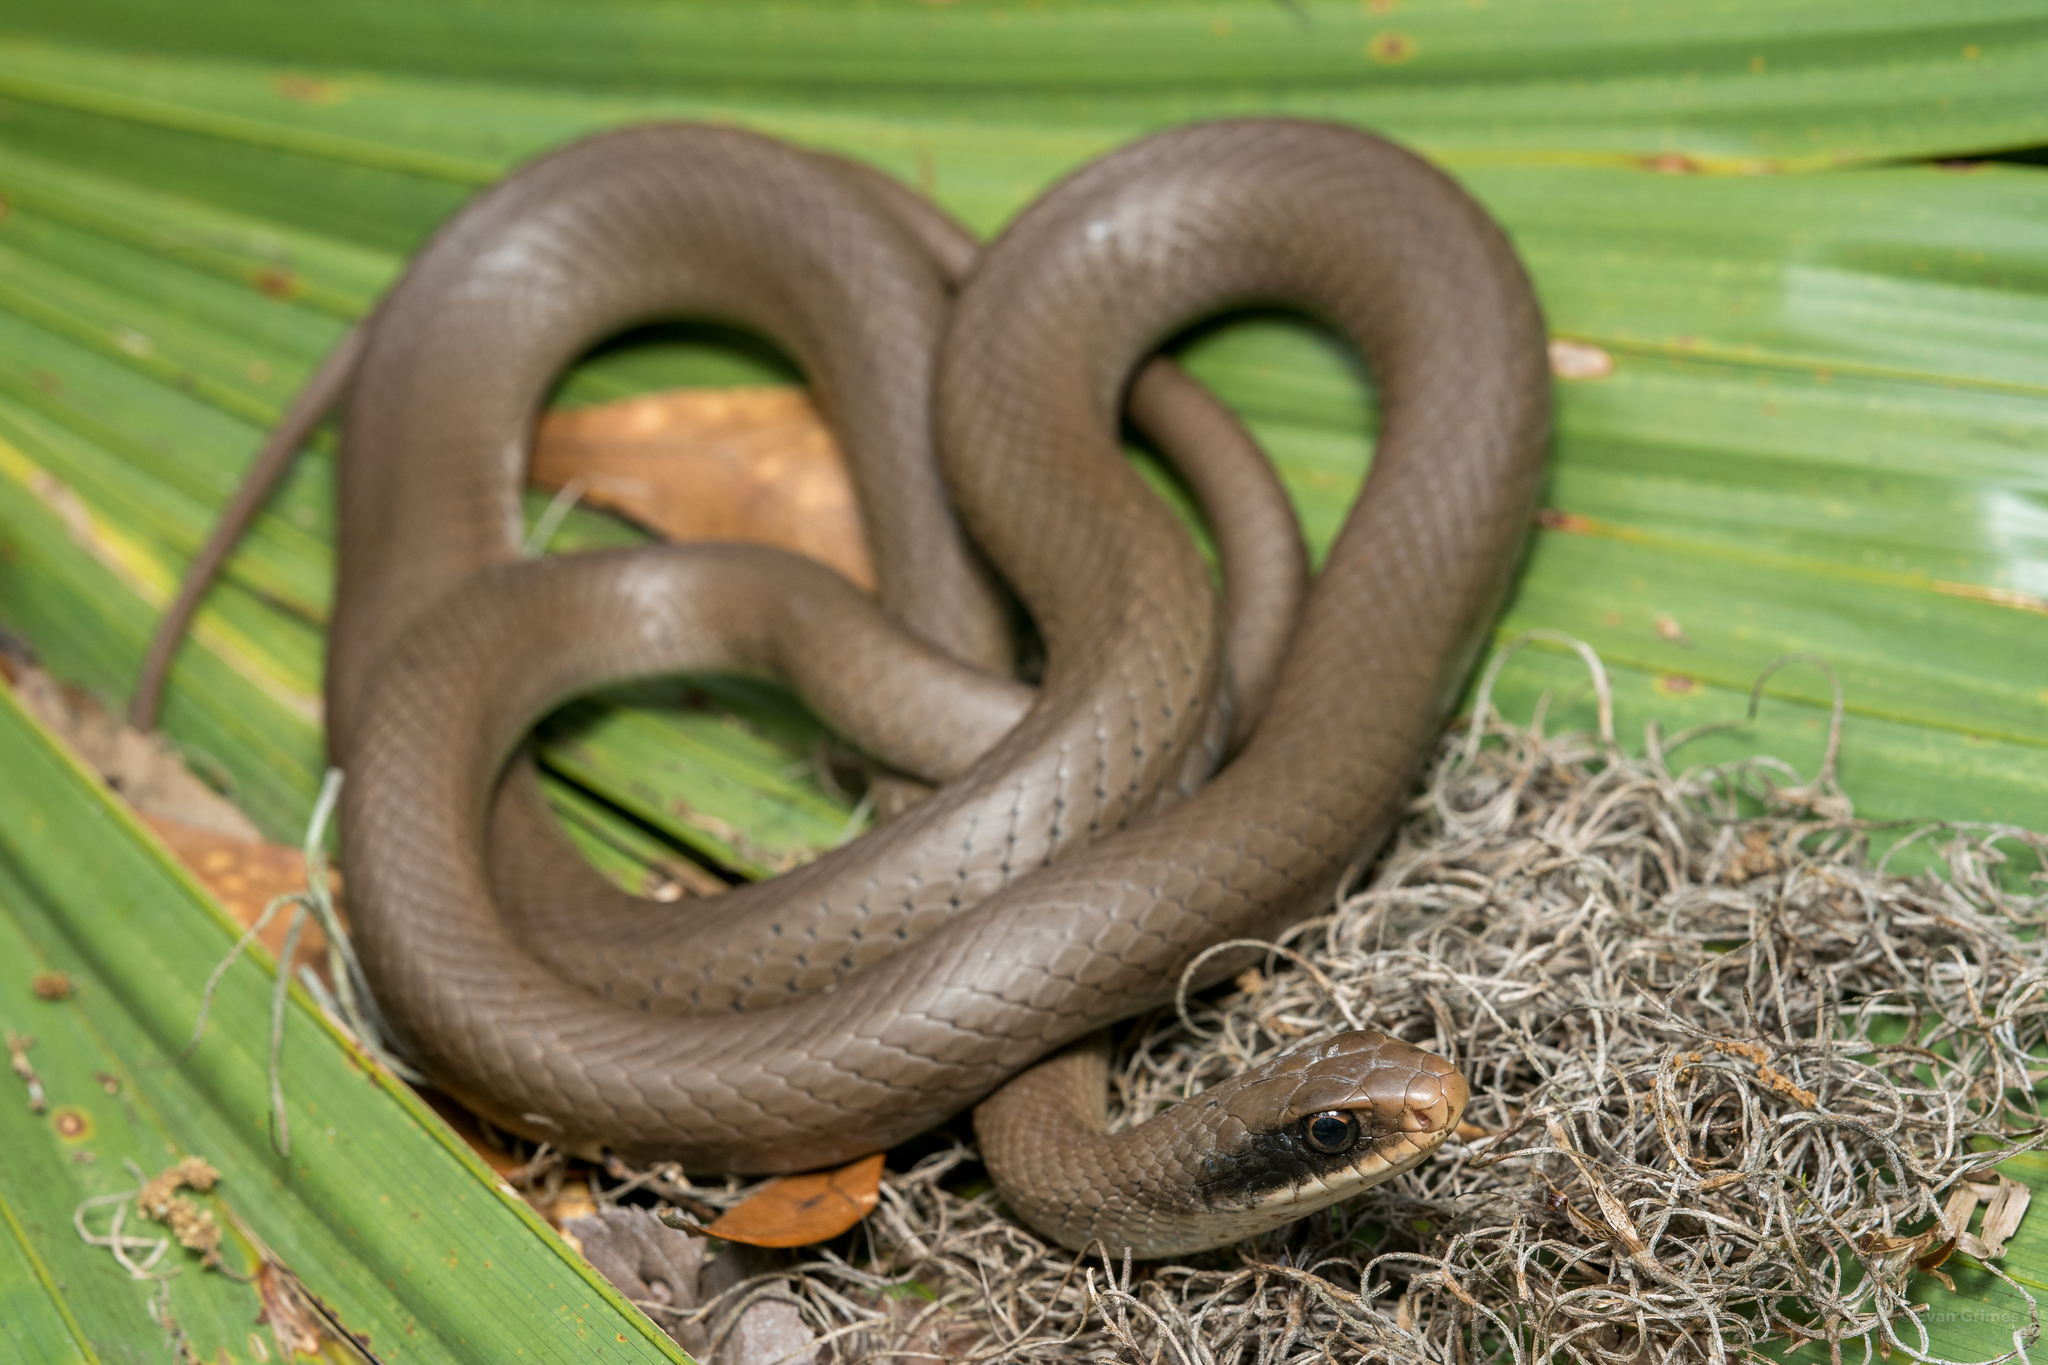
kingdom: Animalia
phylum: Chordata
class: Squamata
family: Colubridae
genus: Coluber
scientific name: Coluber constrictor
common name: Eastern racer
